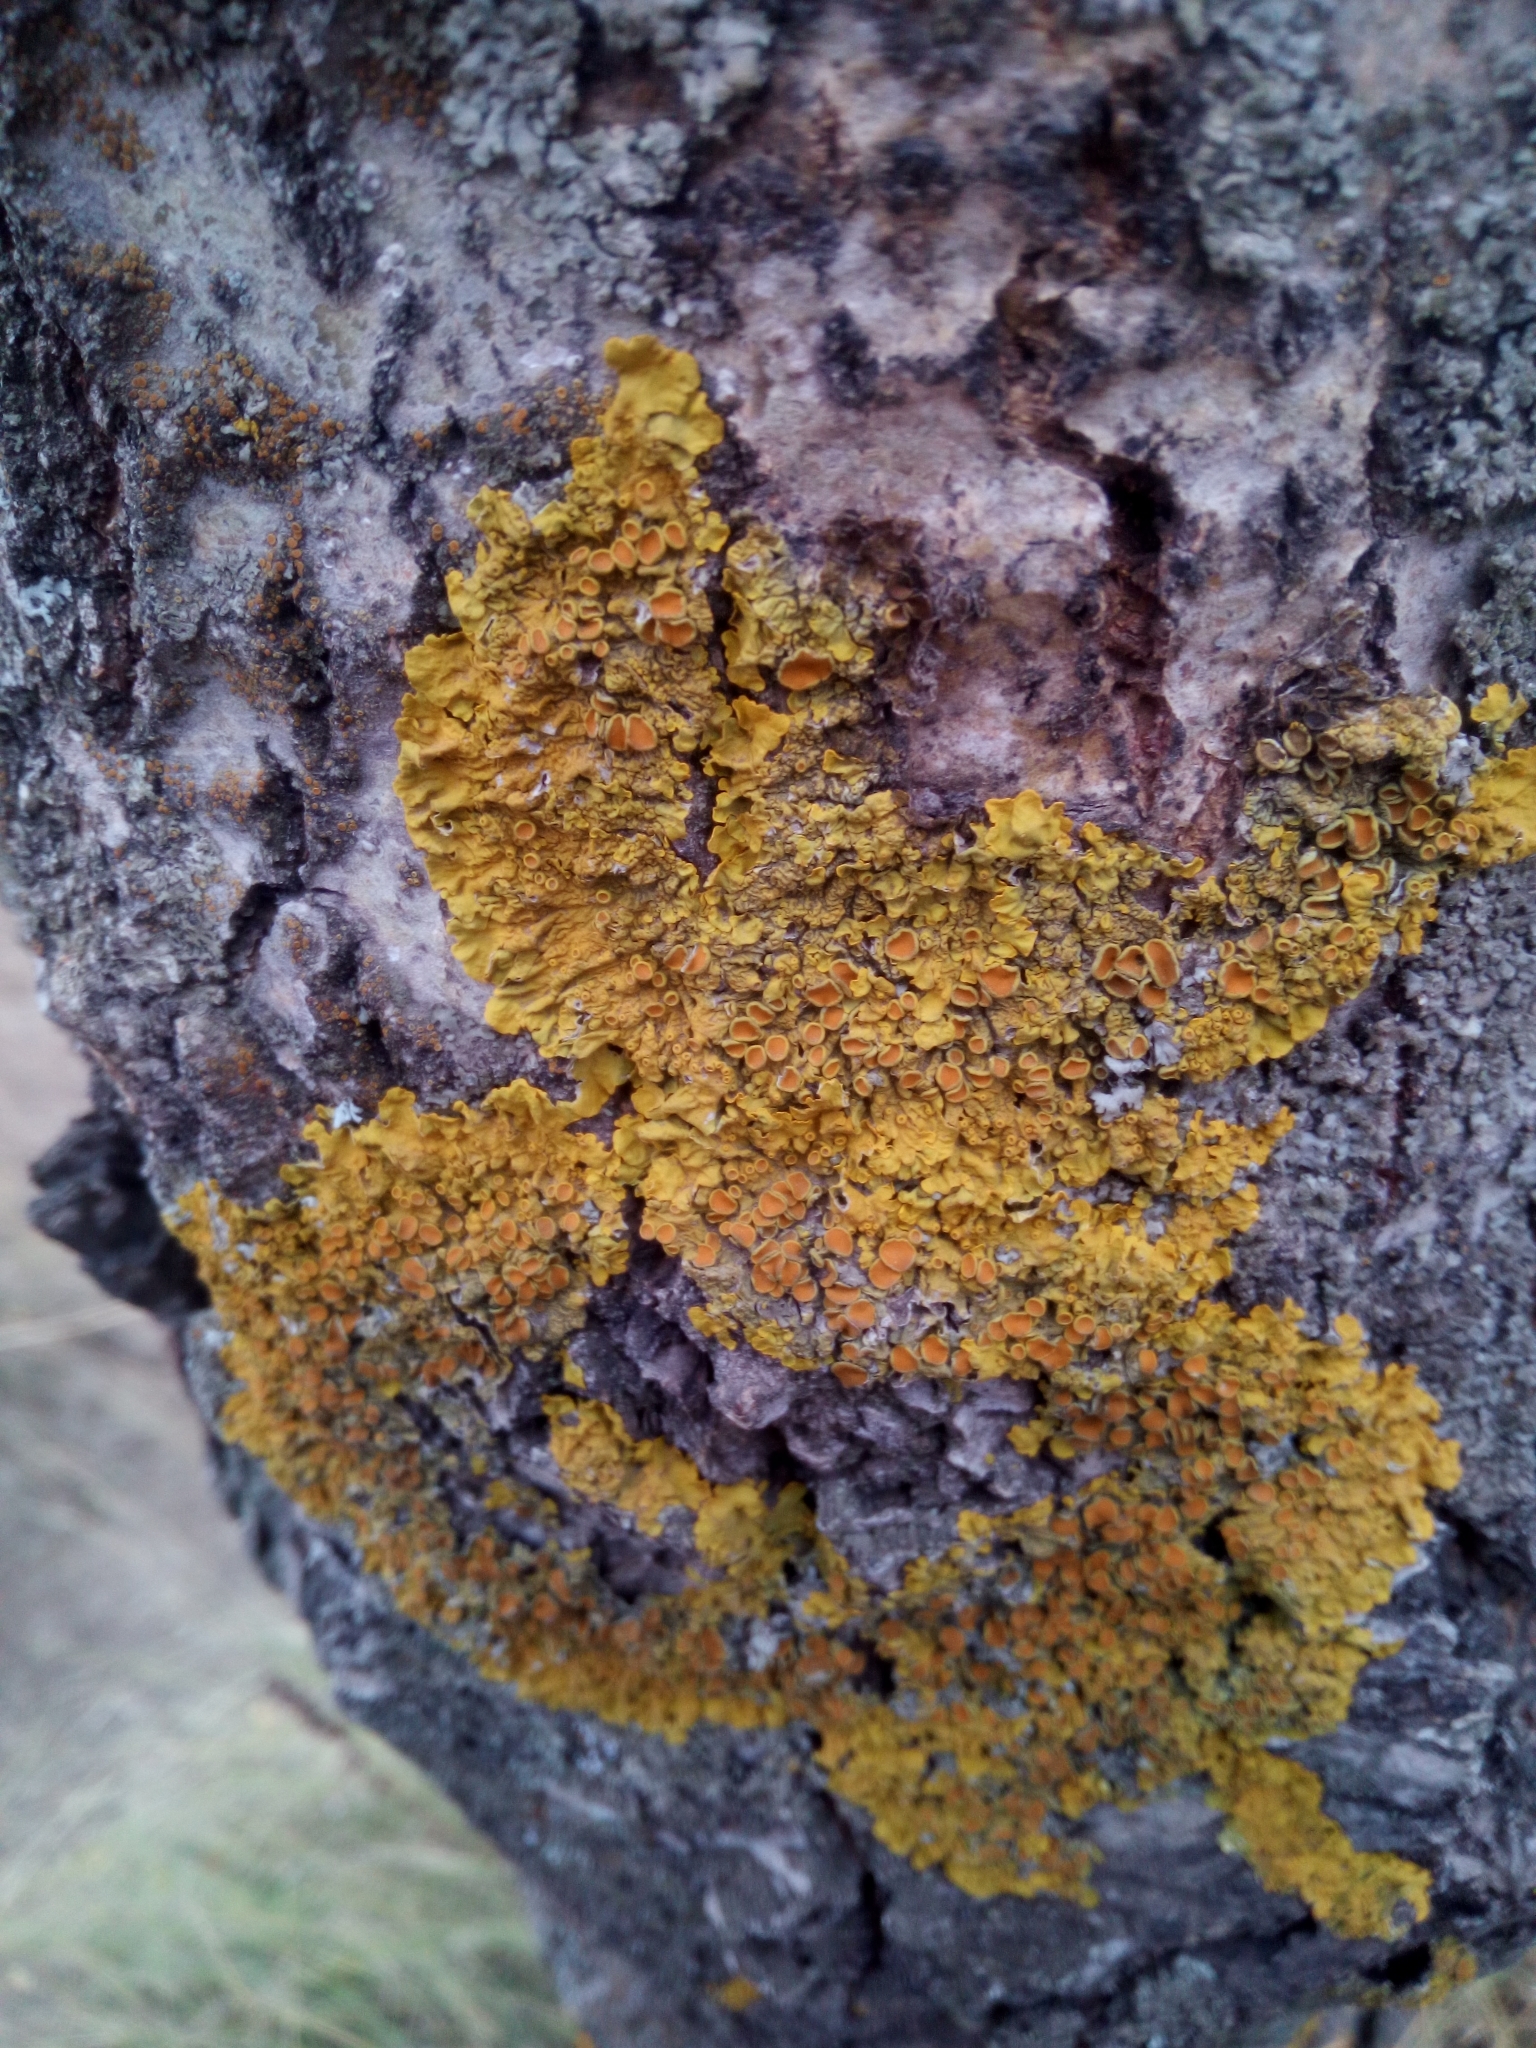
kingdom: Fungi
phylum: Ascomycota
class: Lecanoromycetes
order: Teloschistales
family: Teloschistaceae
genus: Xanthoria
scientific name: Xanthoria parietina
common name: Common orange lichen
